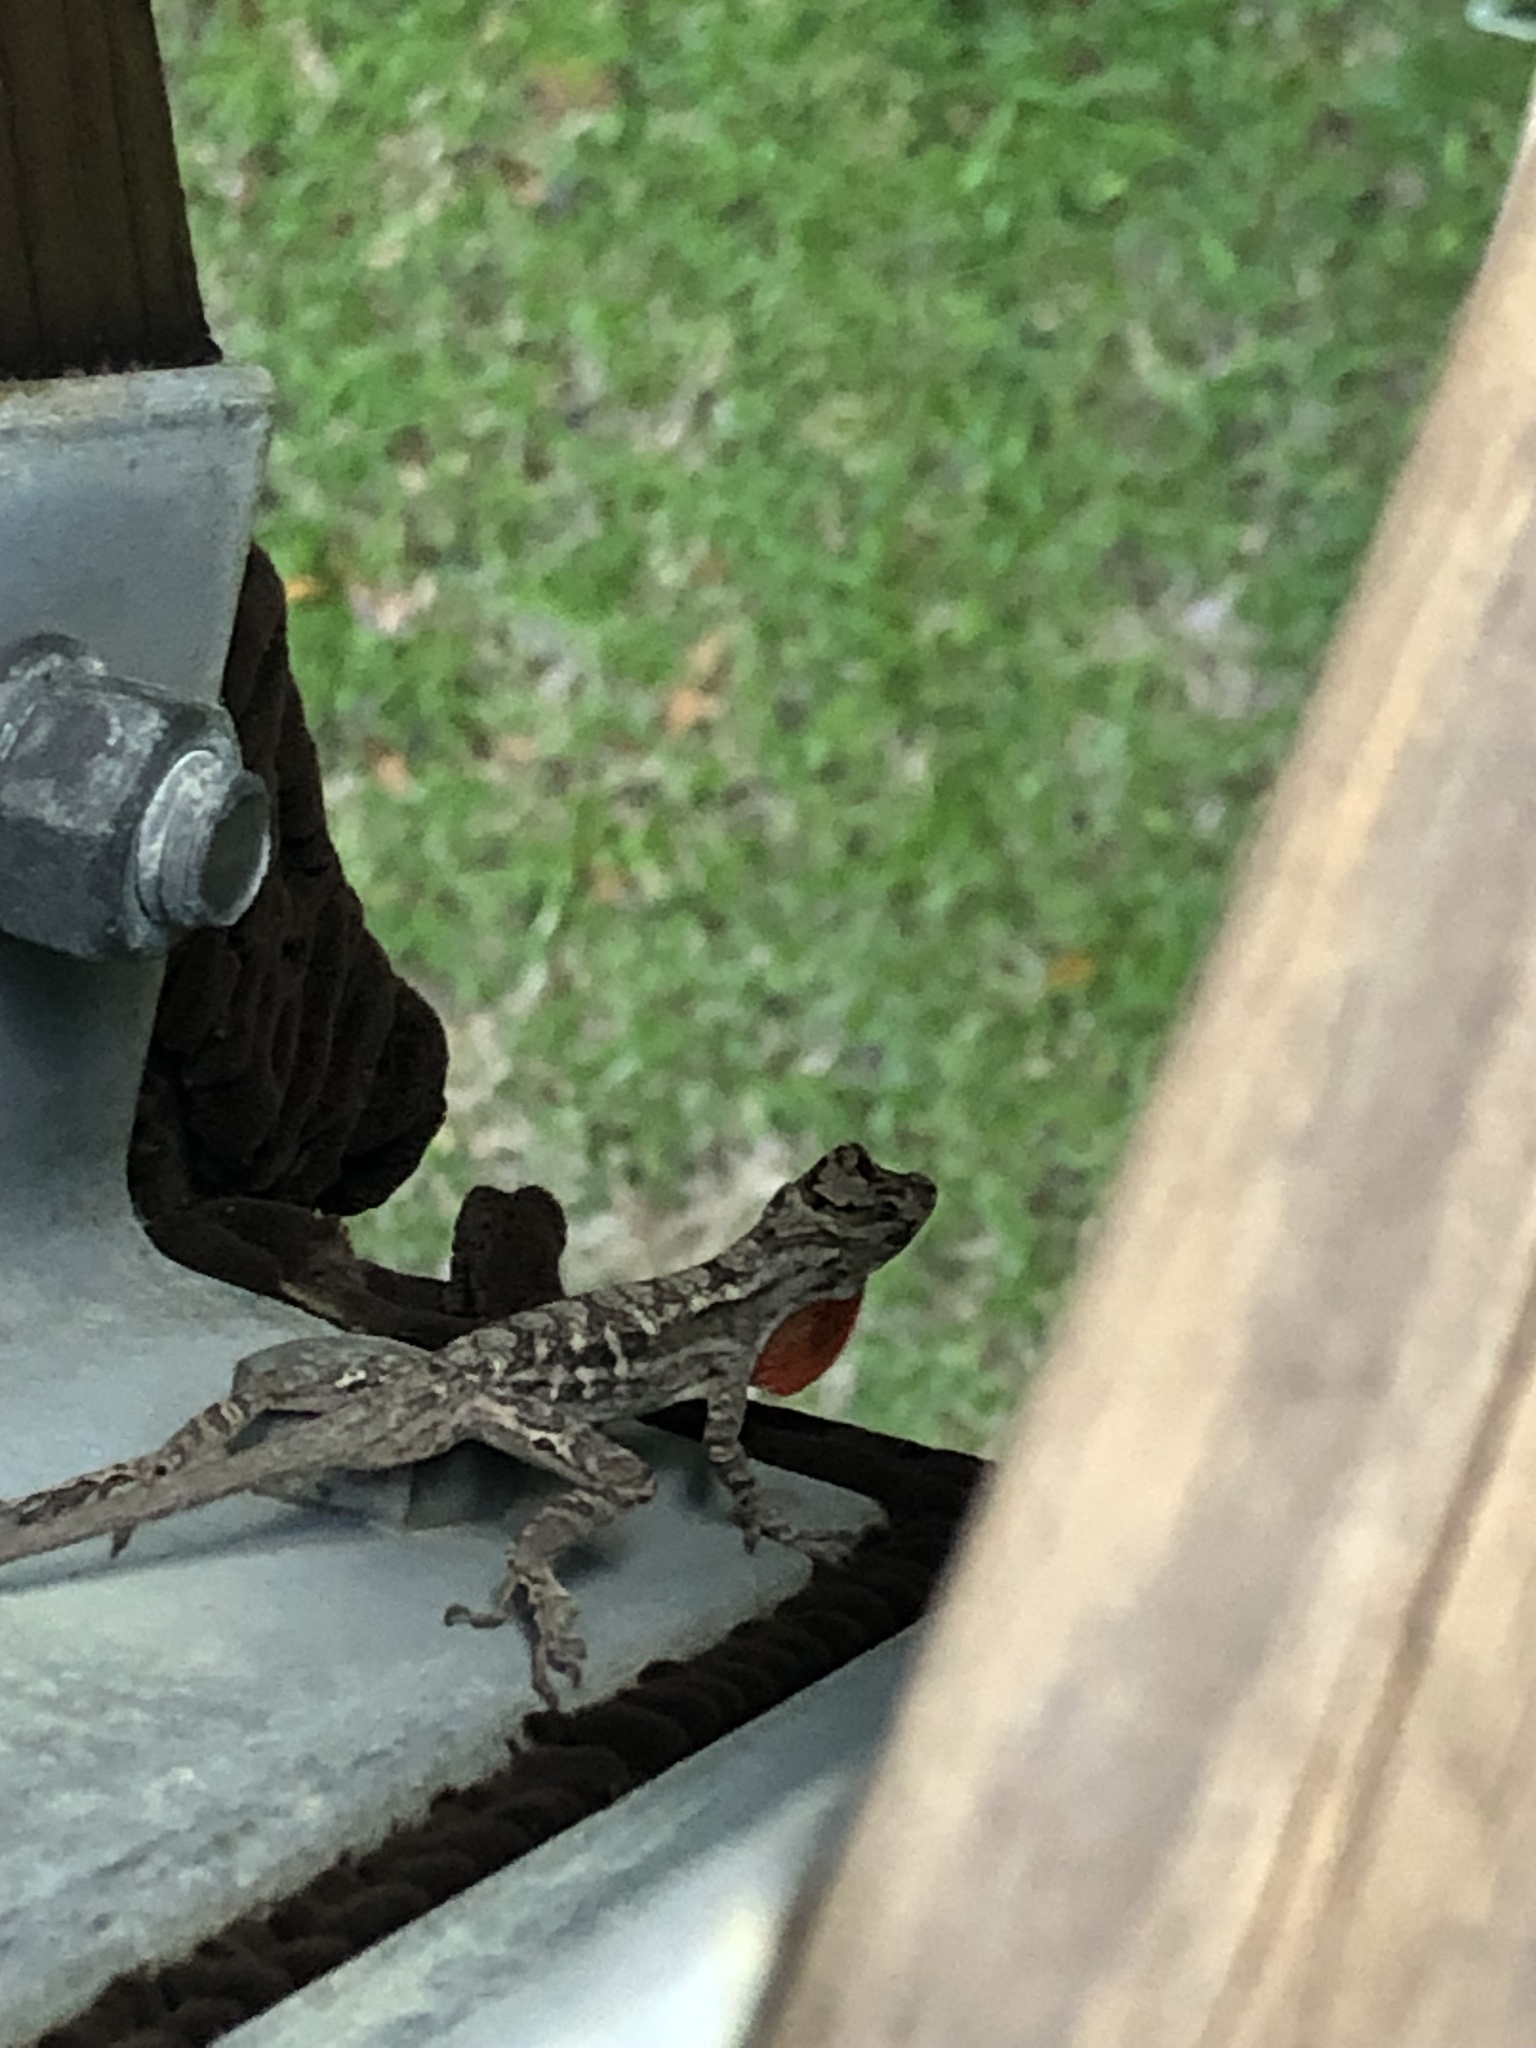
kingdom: Animalia
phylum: Chordata
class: Squamata
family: Dactyloidae
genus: Anolis
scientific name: Anolis lemurinus
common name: Ghost anole
